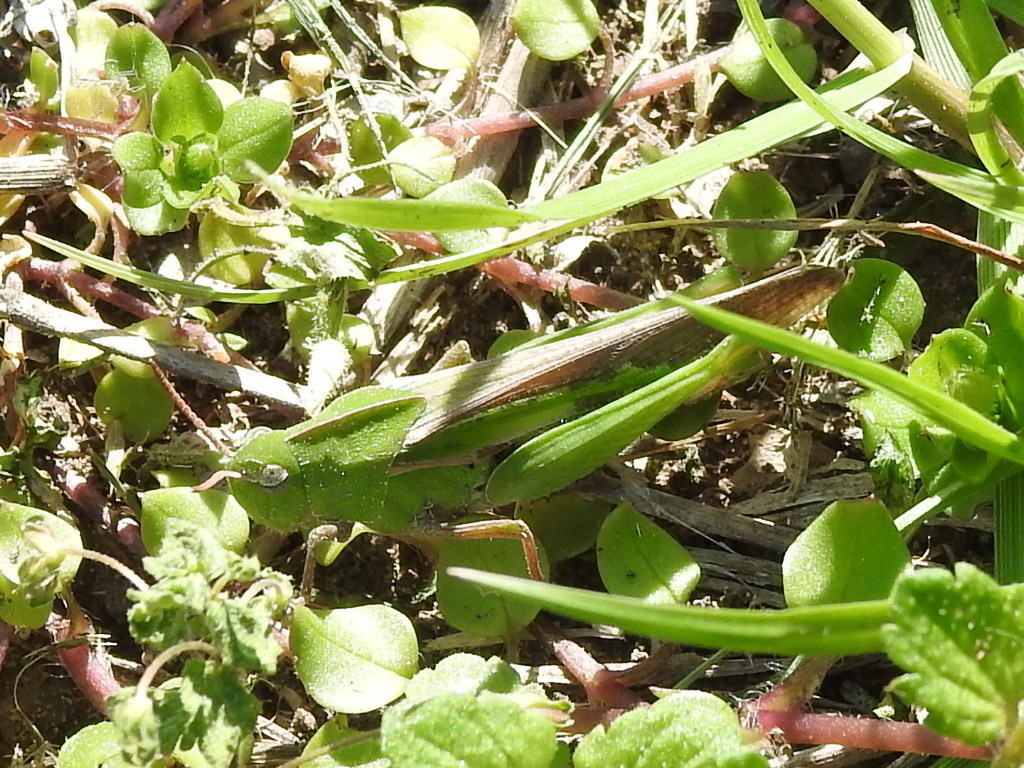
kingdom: Animalia
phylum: Arthropoda
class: Insecta
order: Orthoptera
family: Acrididae
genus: Chortophaga
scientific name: Chortophaga viridifasciata
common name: Green-striped grasshopper
